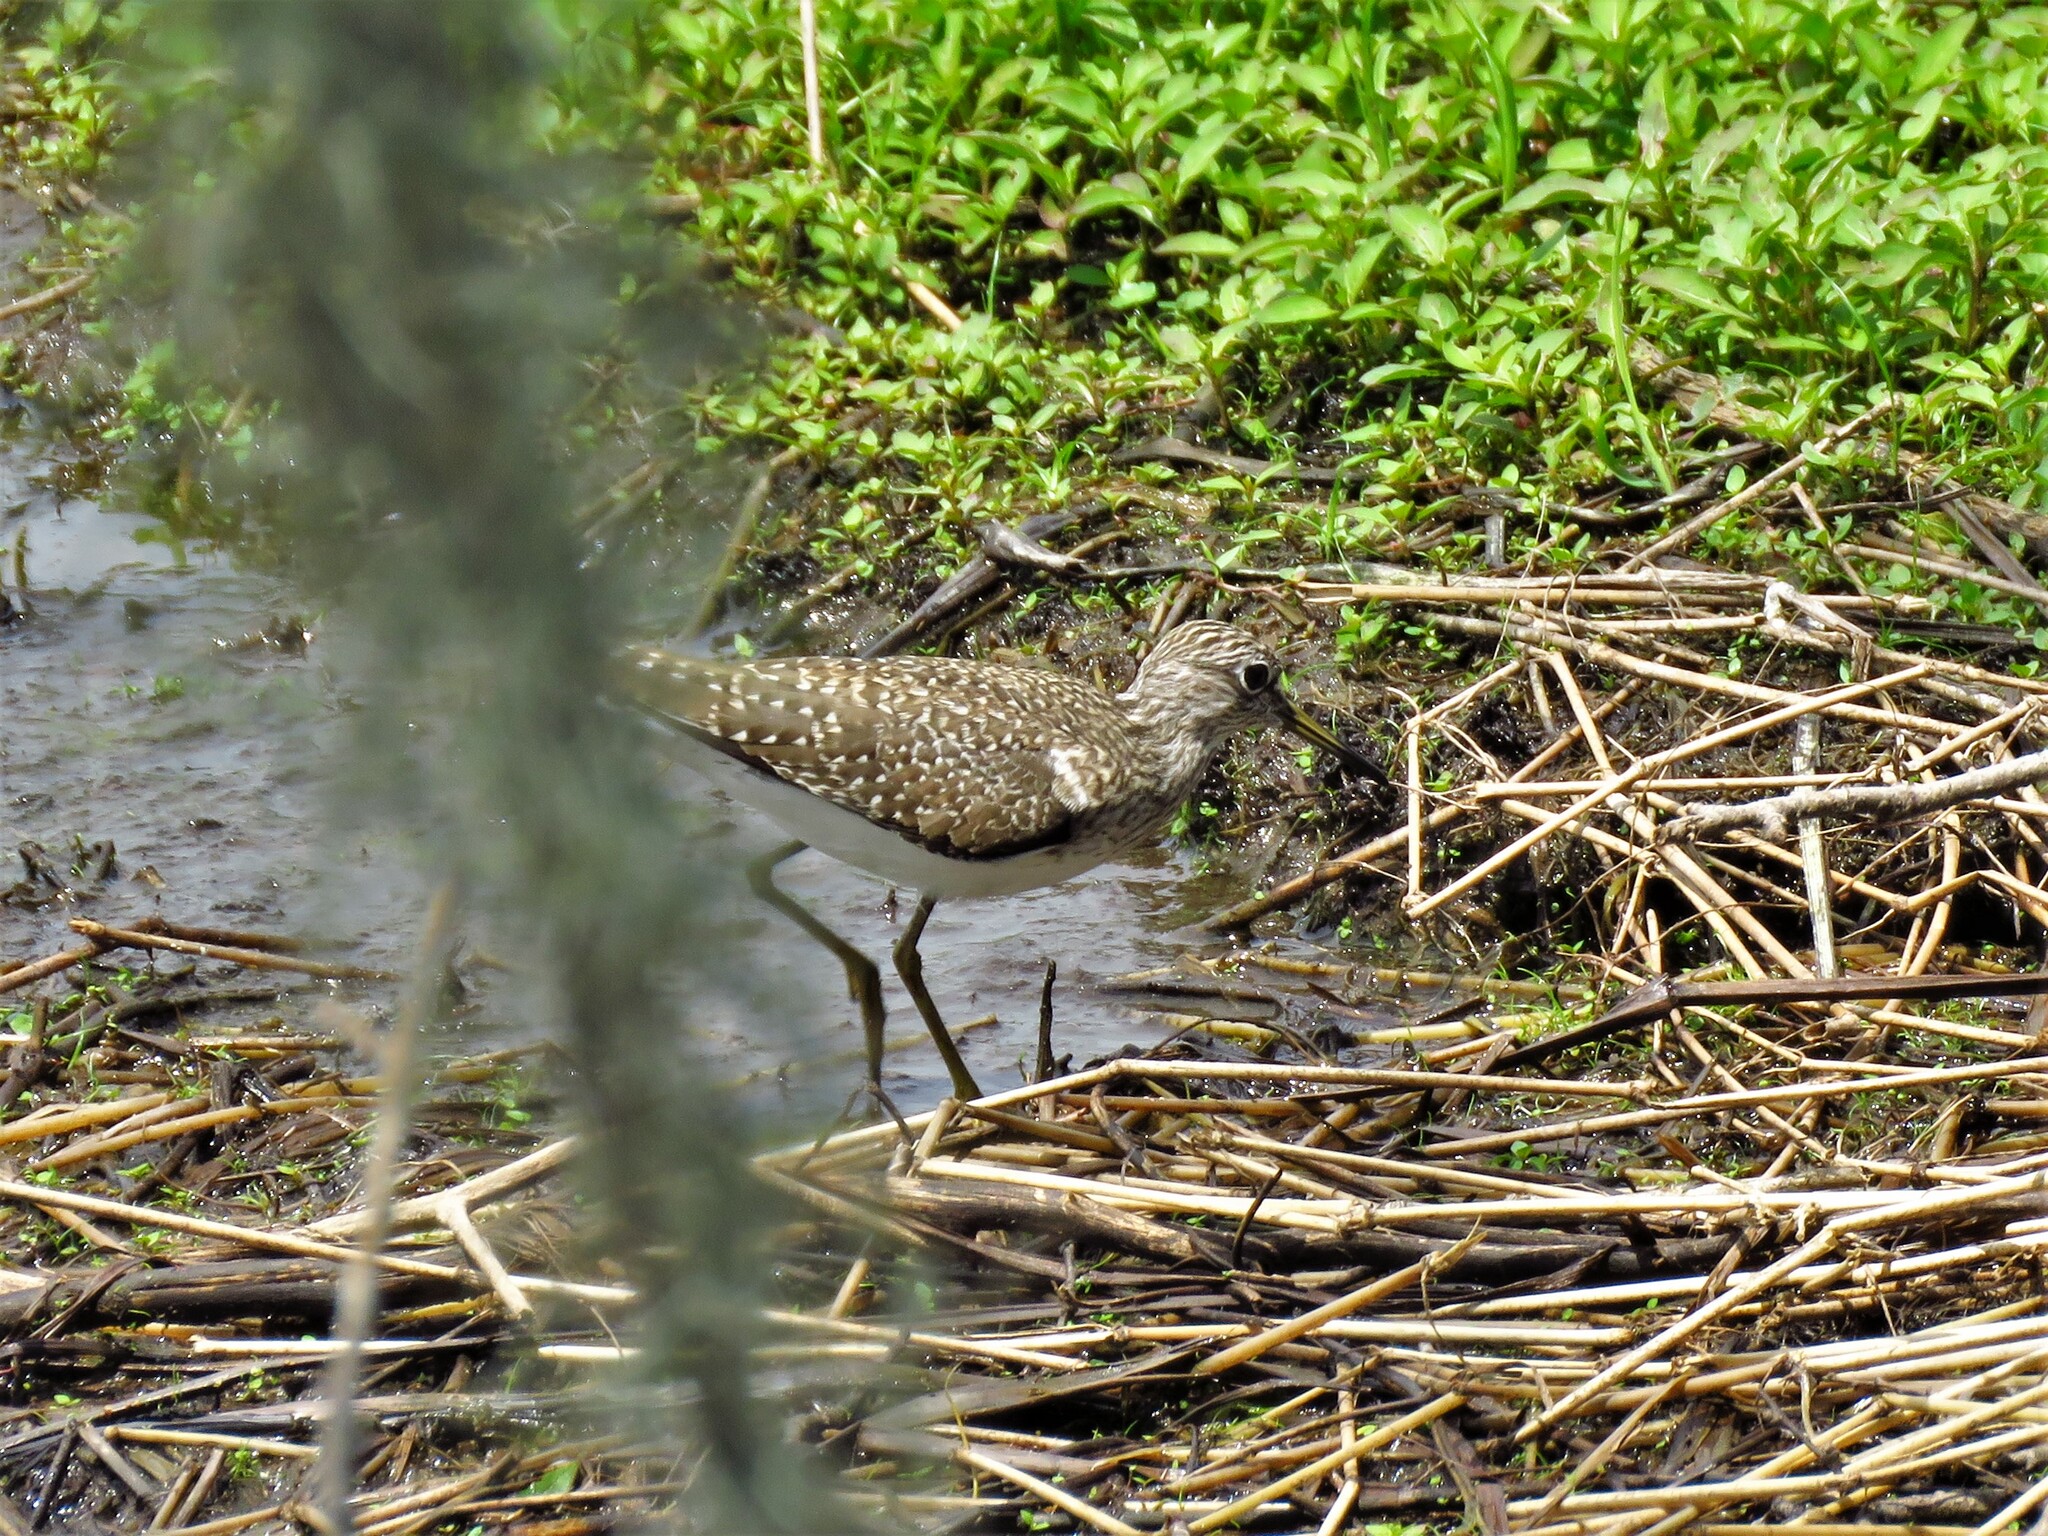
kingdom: Animalia
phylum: Chordata
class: Aves
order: Charadriiformes
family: Scolopacidae
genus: Tringa
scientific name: Tringa solitaria
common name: Solitary sandpiper
